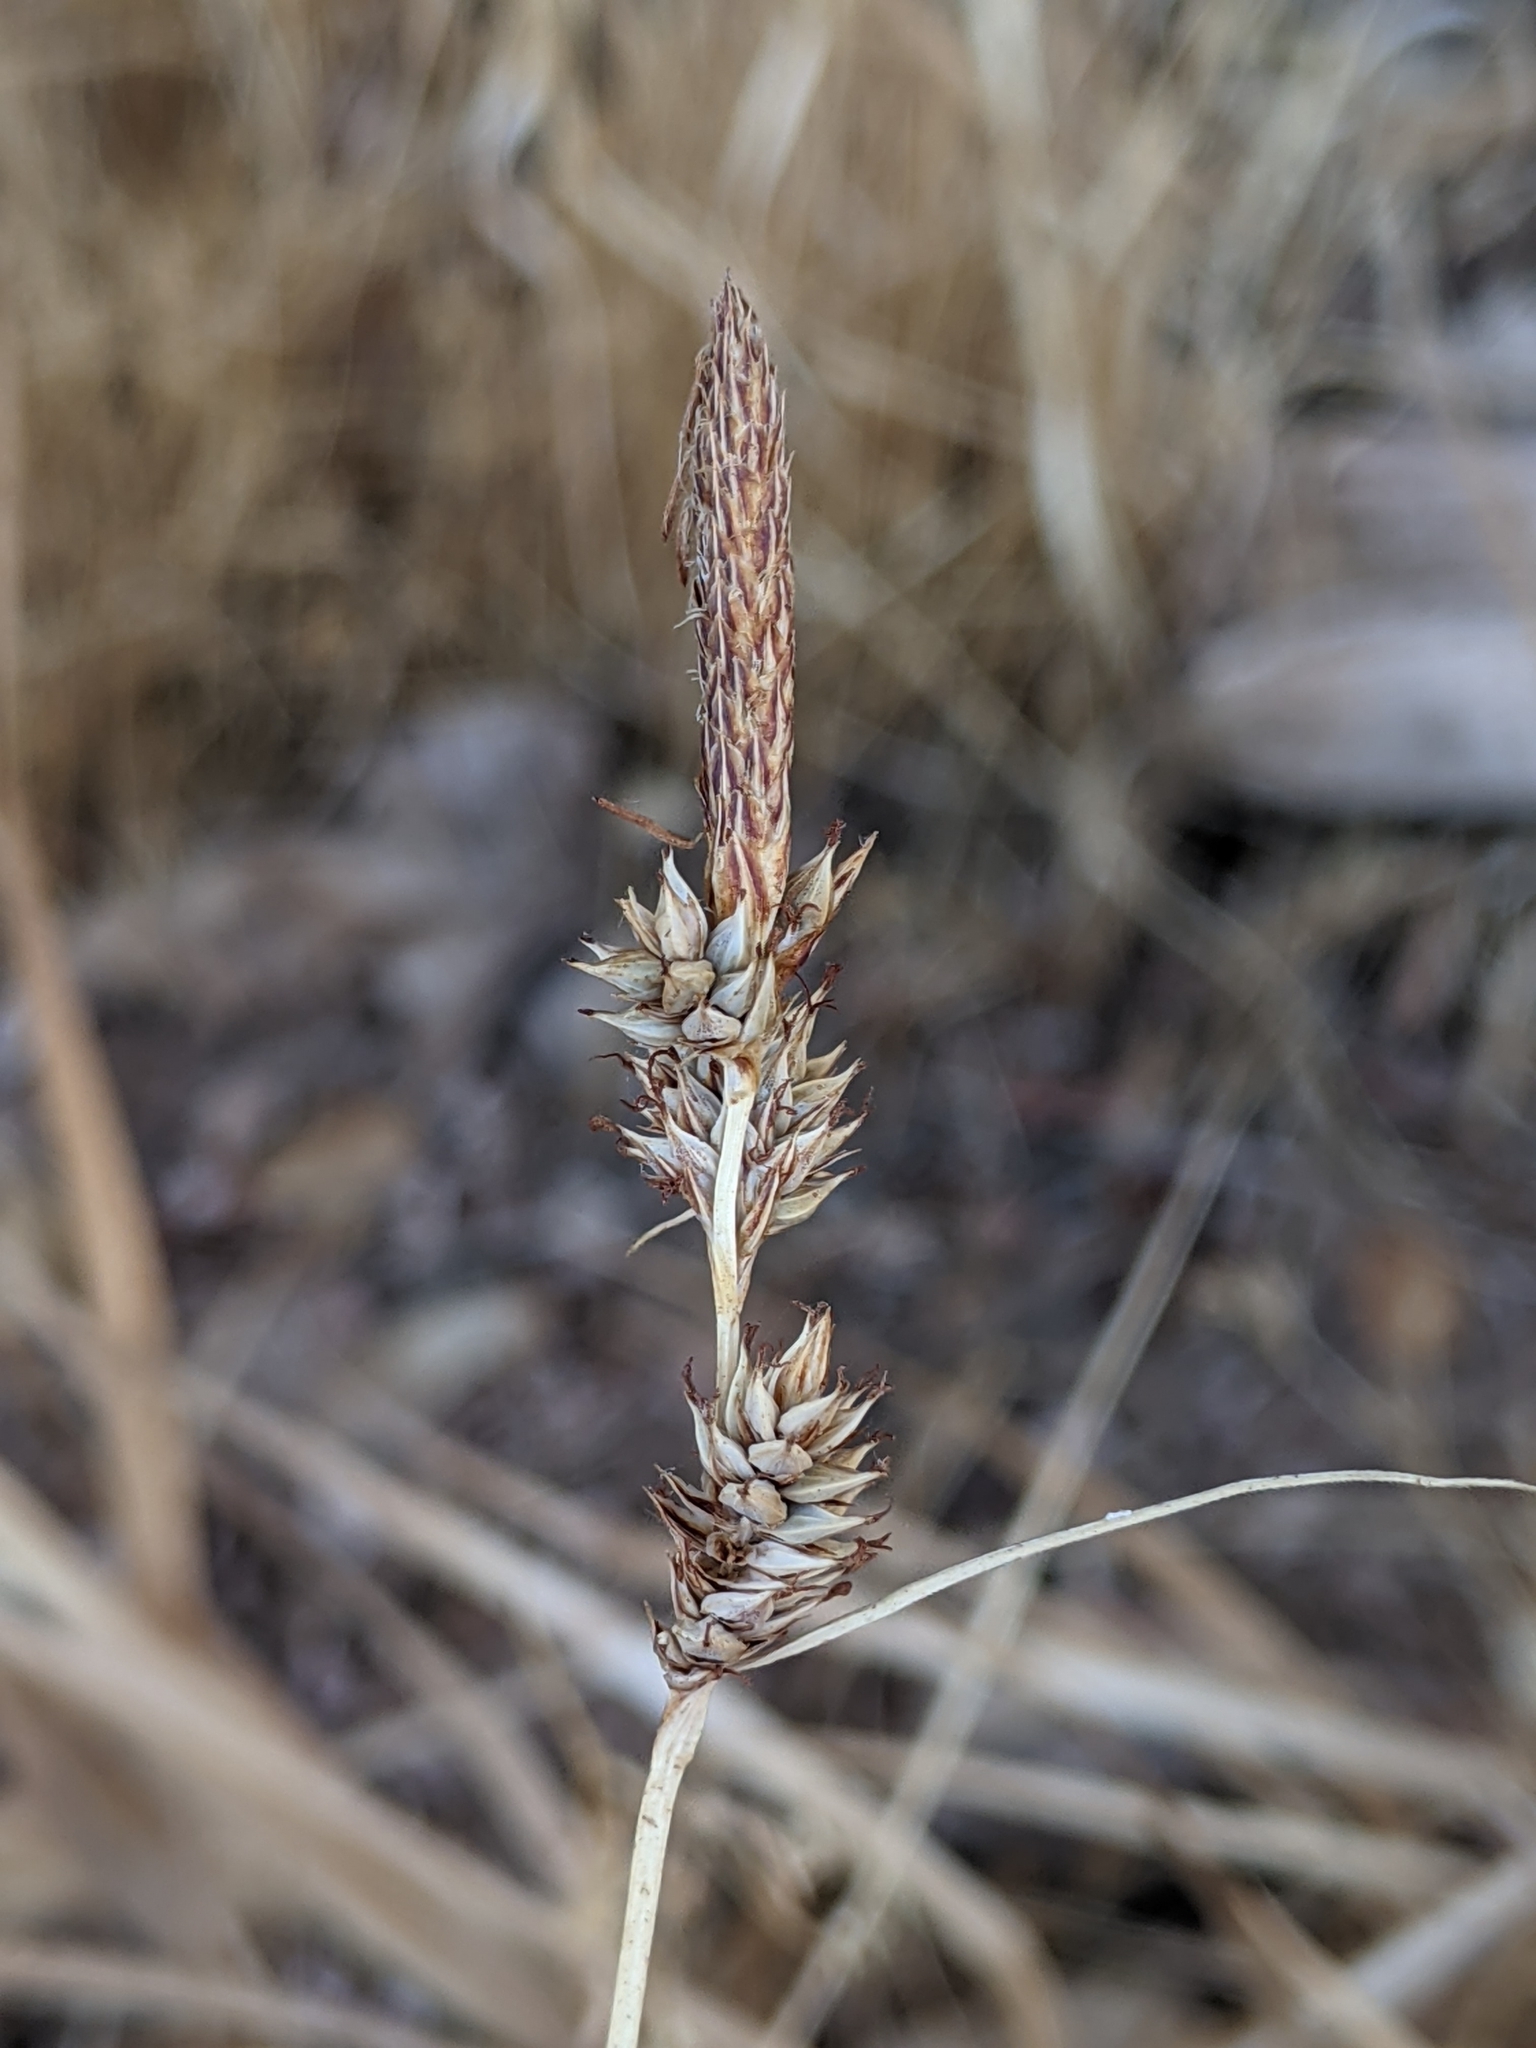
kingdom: Plantae
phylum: Tracheophyta
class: Liliopsida
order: Poales
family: Cyperaceae
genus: Carex
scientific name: Carex serratodens
